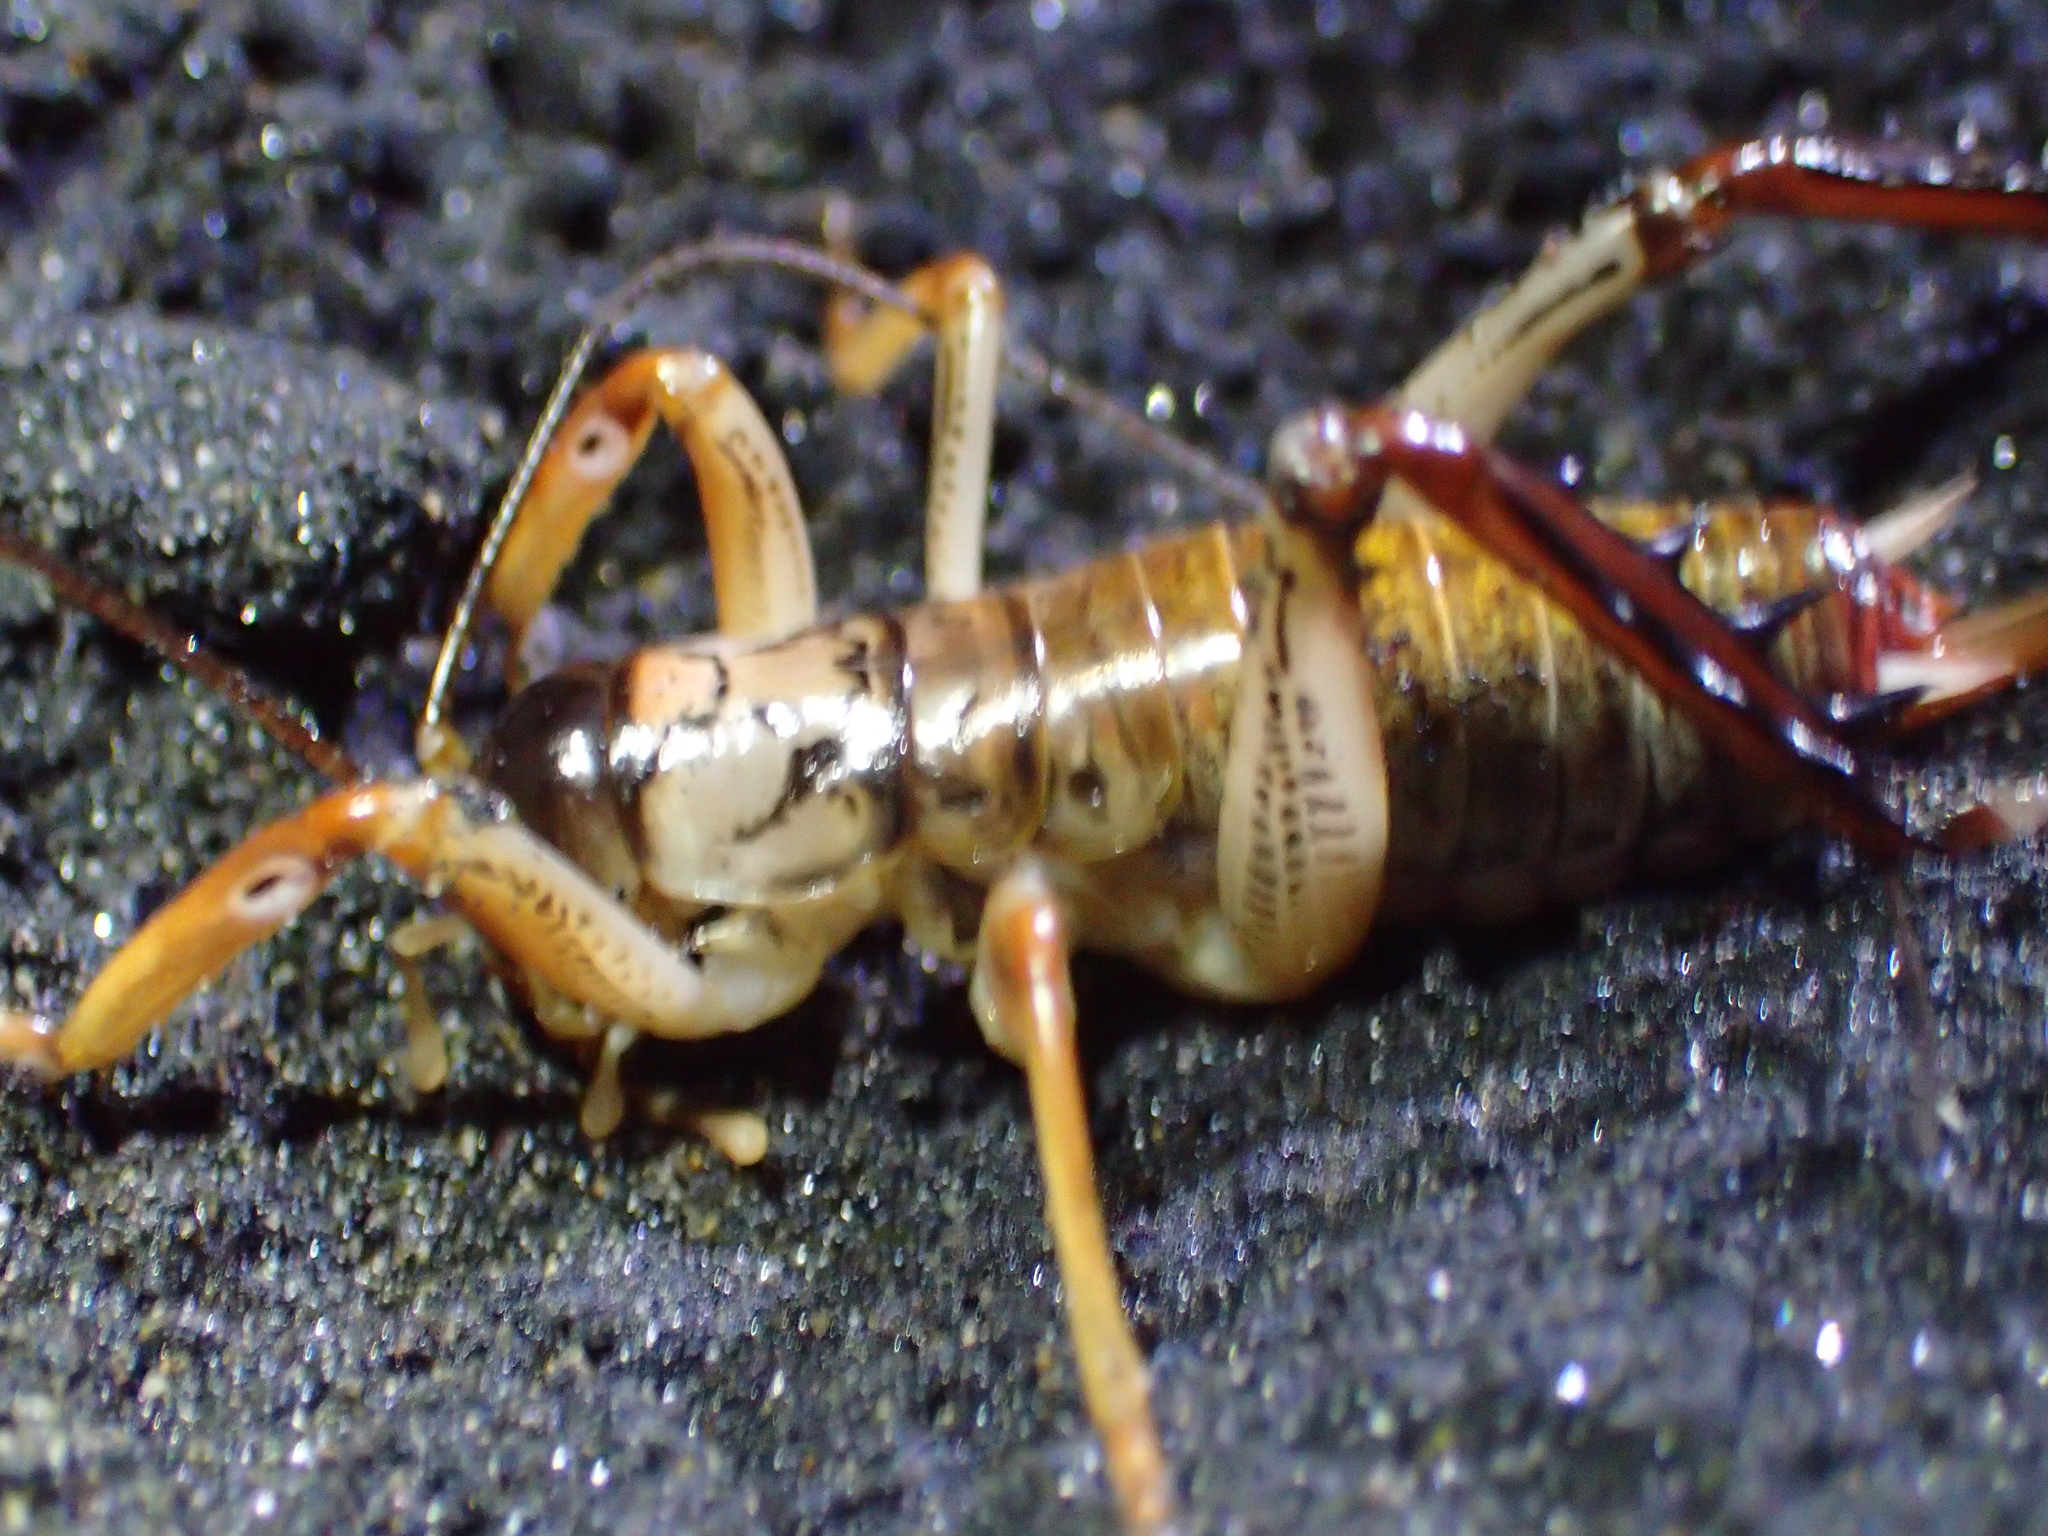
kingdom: Animalia
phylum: Arthropoda
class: Insecta
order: Orthoptera
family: Anostostomatidae
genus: Hemideina
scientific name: Hemideina thoracica
